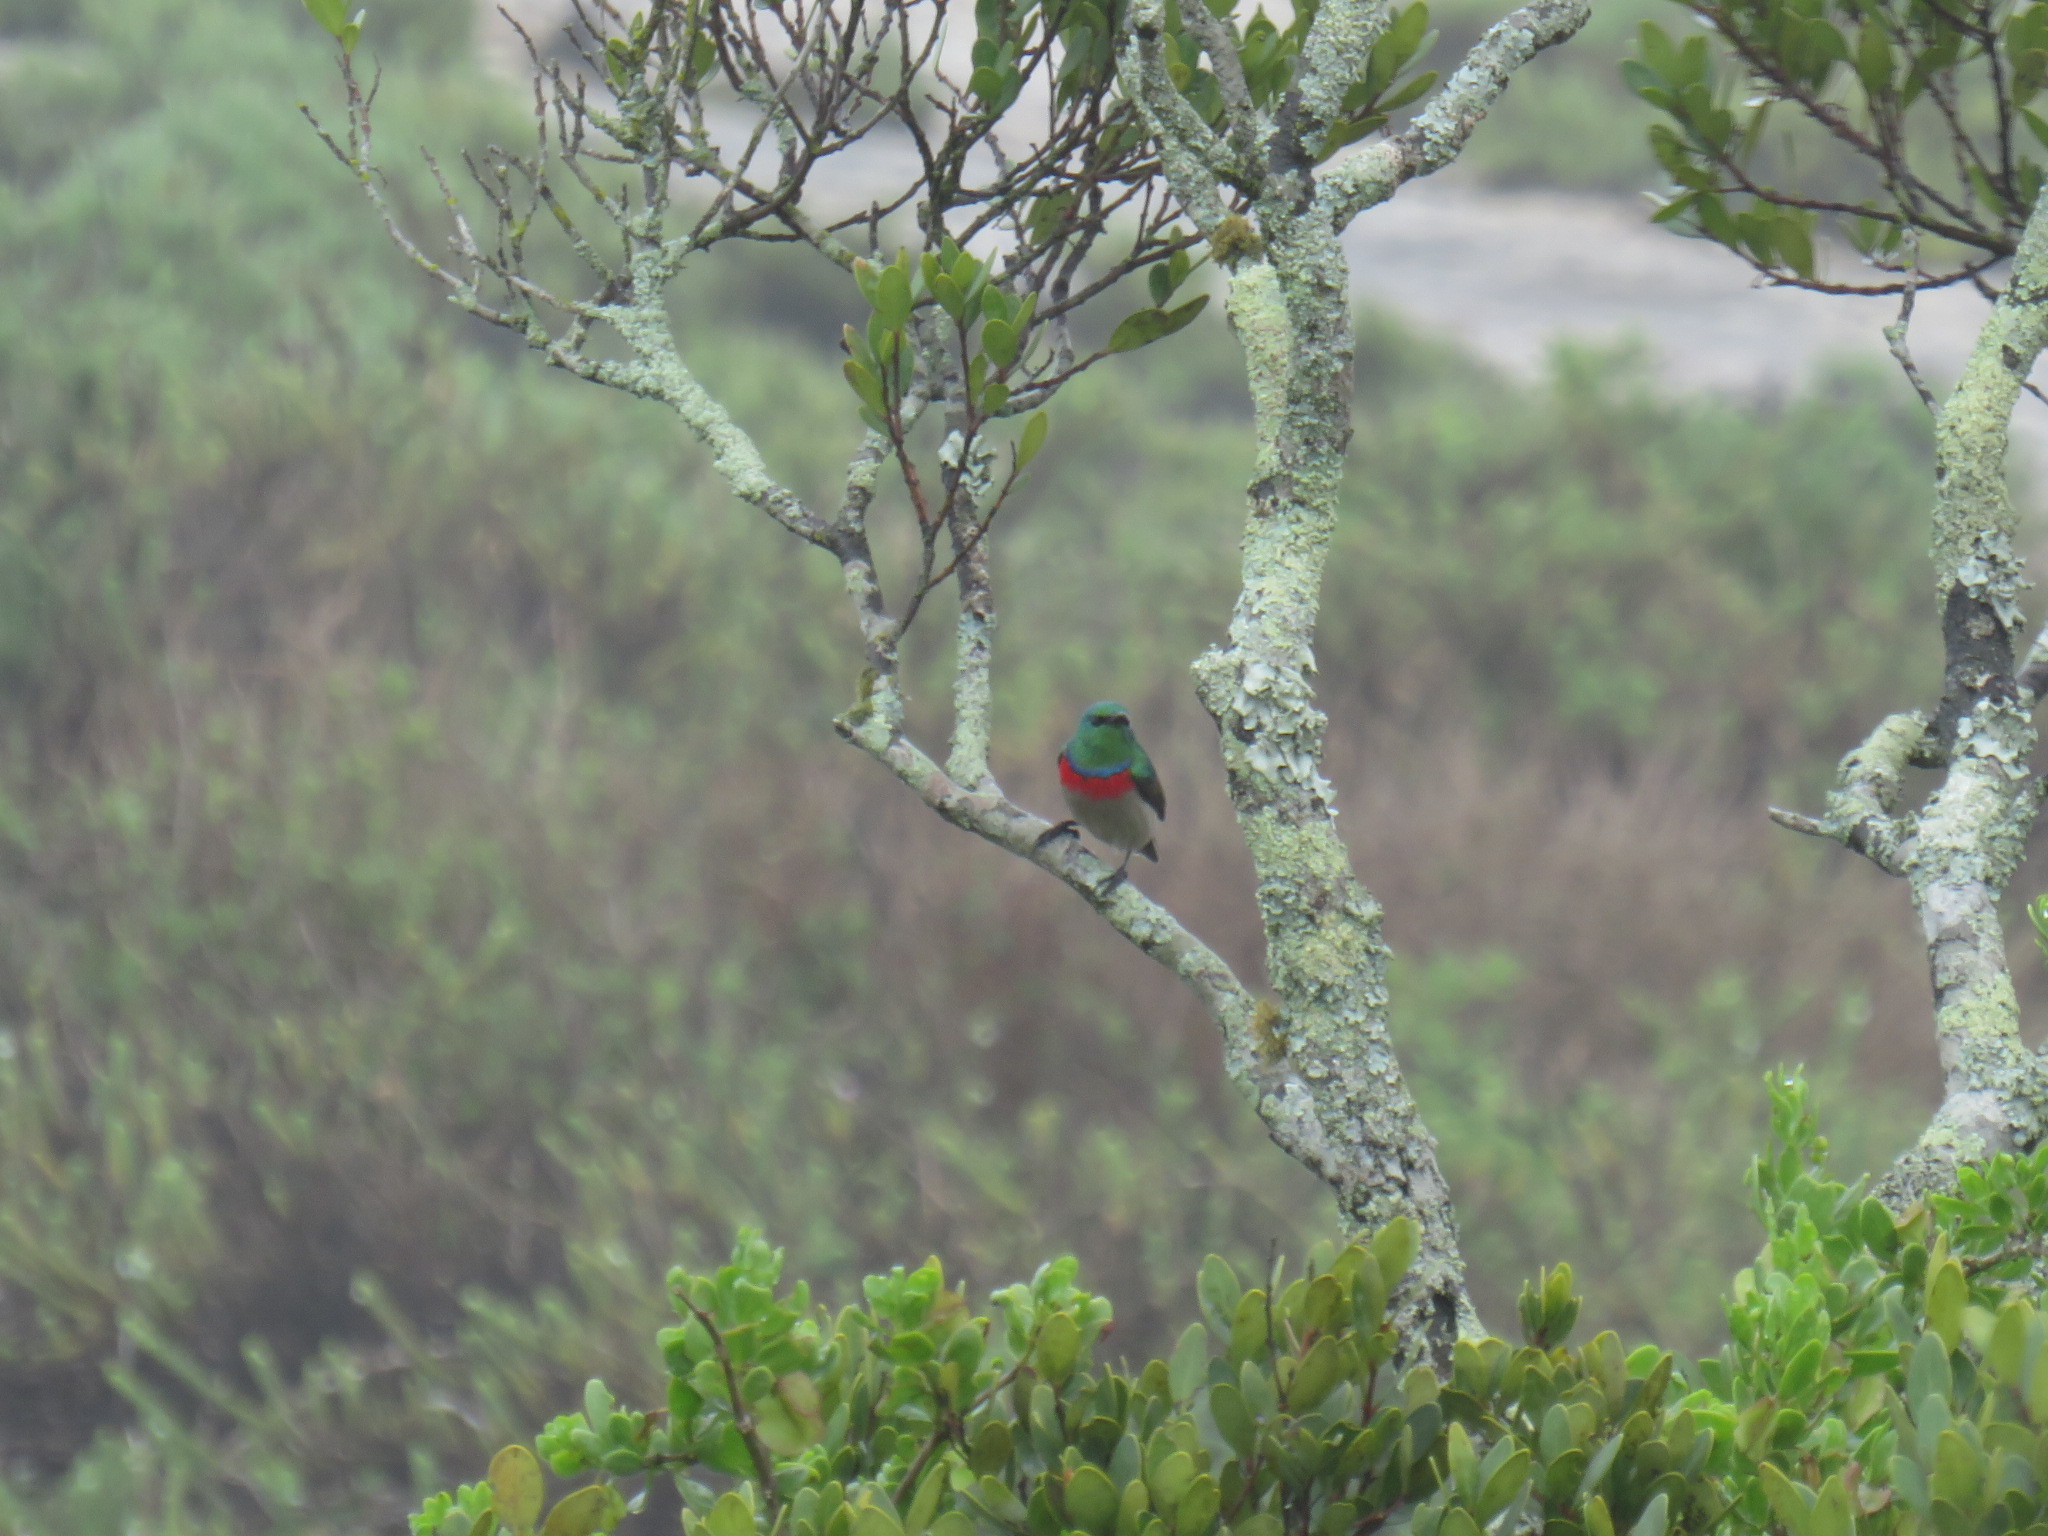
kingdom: Animalia
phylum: Chordata
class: Aves
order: Passeriformes
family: Nectariniidae
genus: Cinnyris
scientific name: Cinnyris chalybeus
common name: Southern double-collared sunbird
